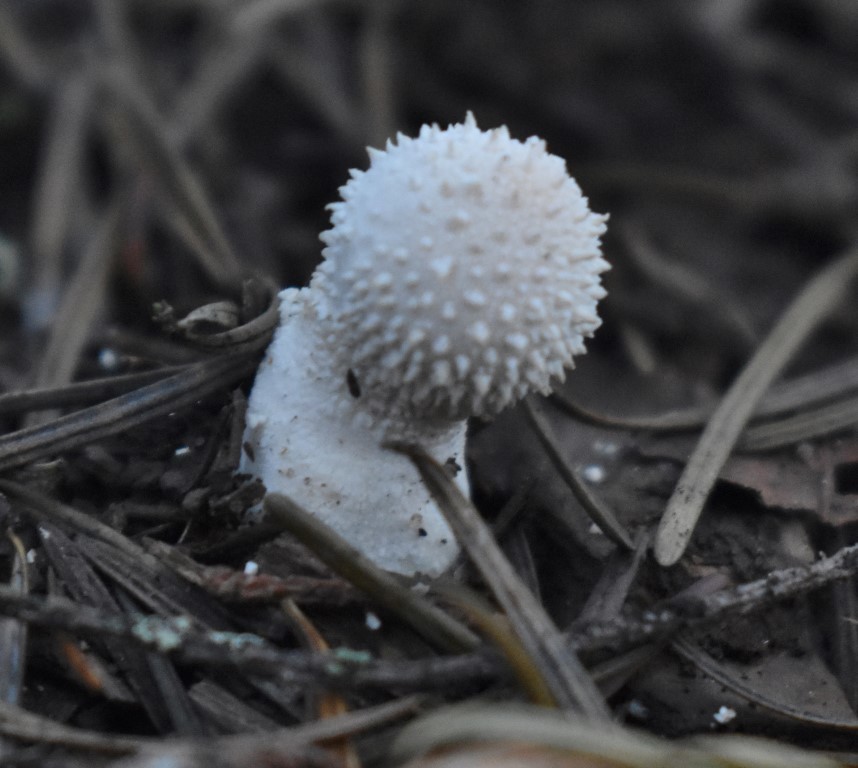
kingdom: Fungi
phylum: Basidiomycota
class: Agaricomycetes
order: Agaricales
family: Lycoperdaceae
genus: Lycoperdon
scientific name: Lycoperdon perlatum
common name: Common puffball
